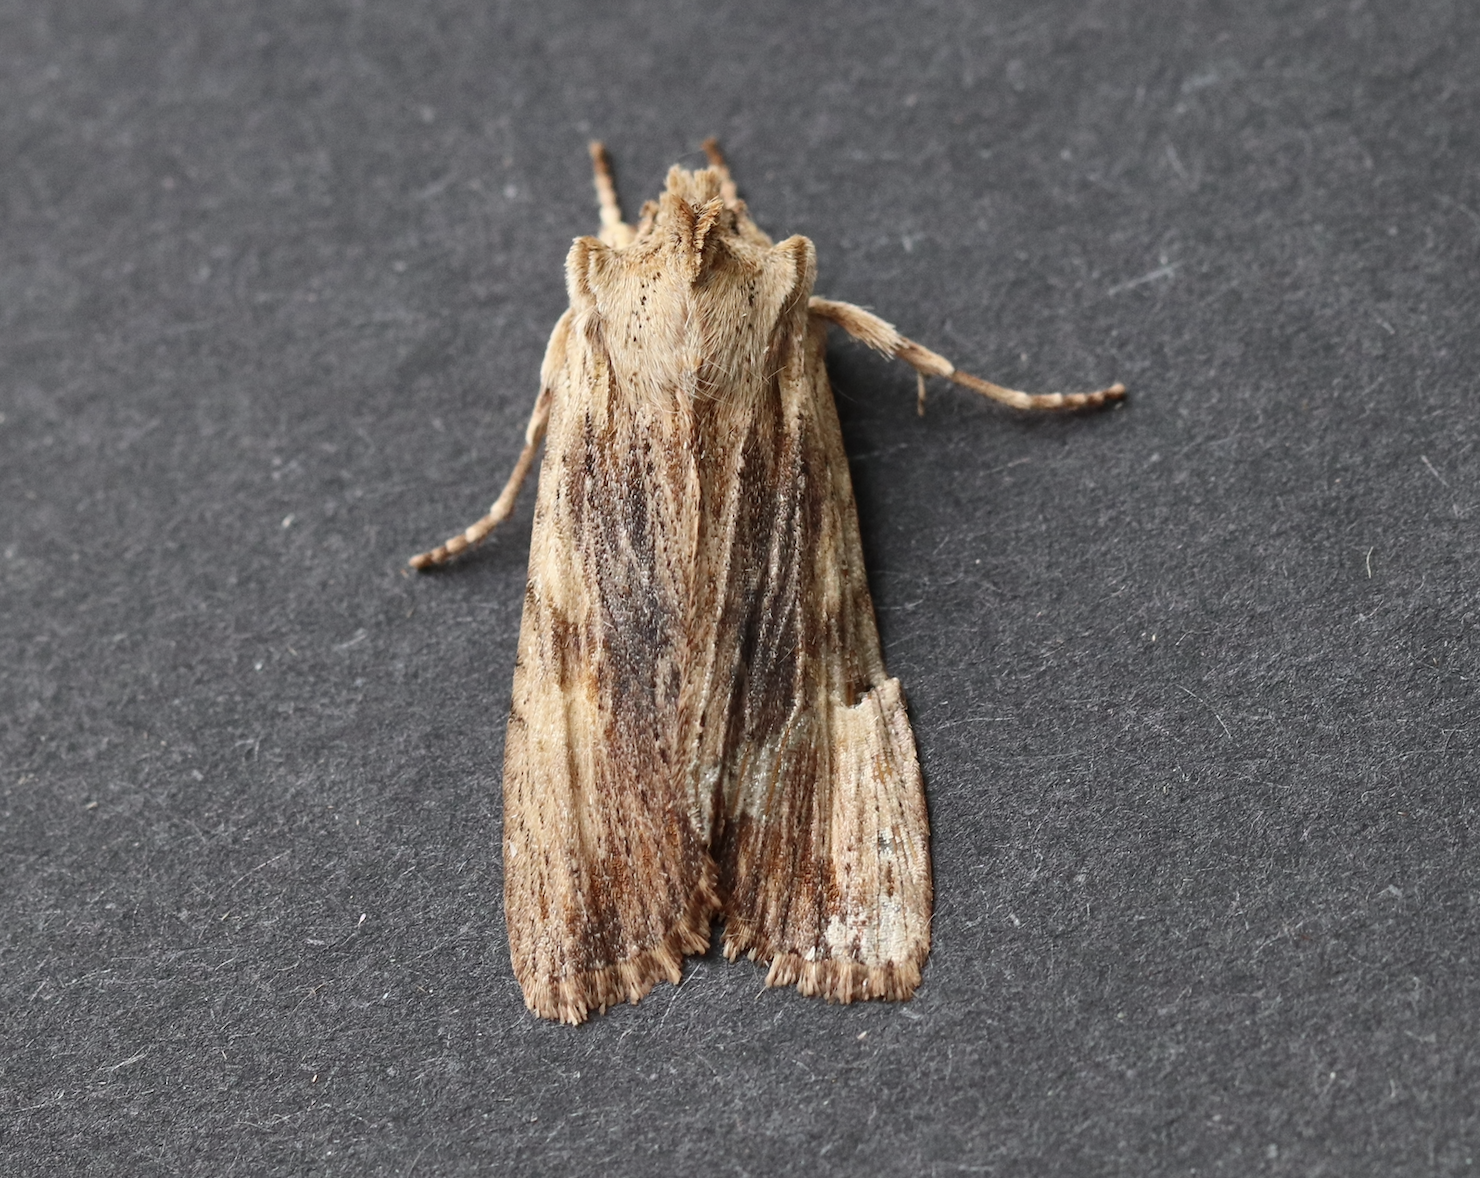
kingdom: Animalia
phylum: Arthropoda
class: Insecta
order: Lepidoptera
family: Noctuidae
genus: Lithophane
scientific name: Lithophane socia
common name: Pale pinion
